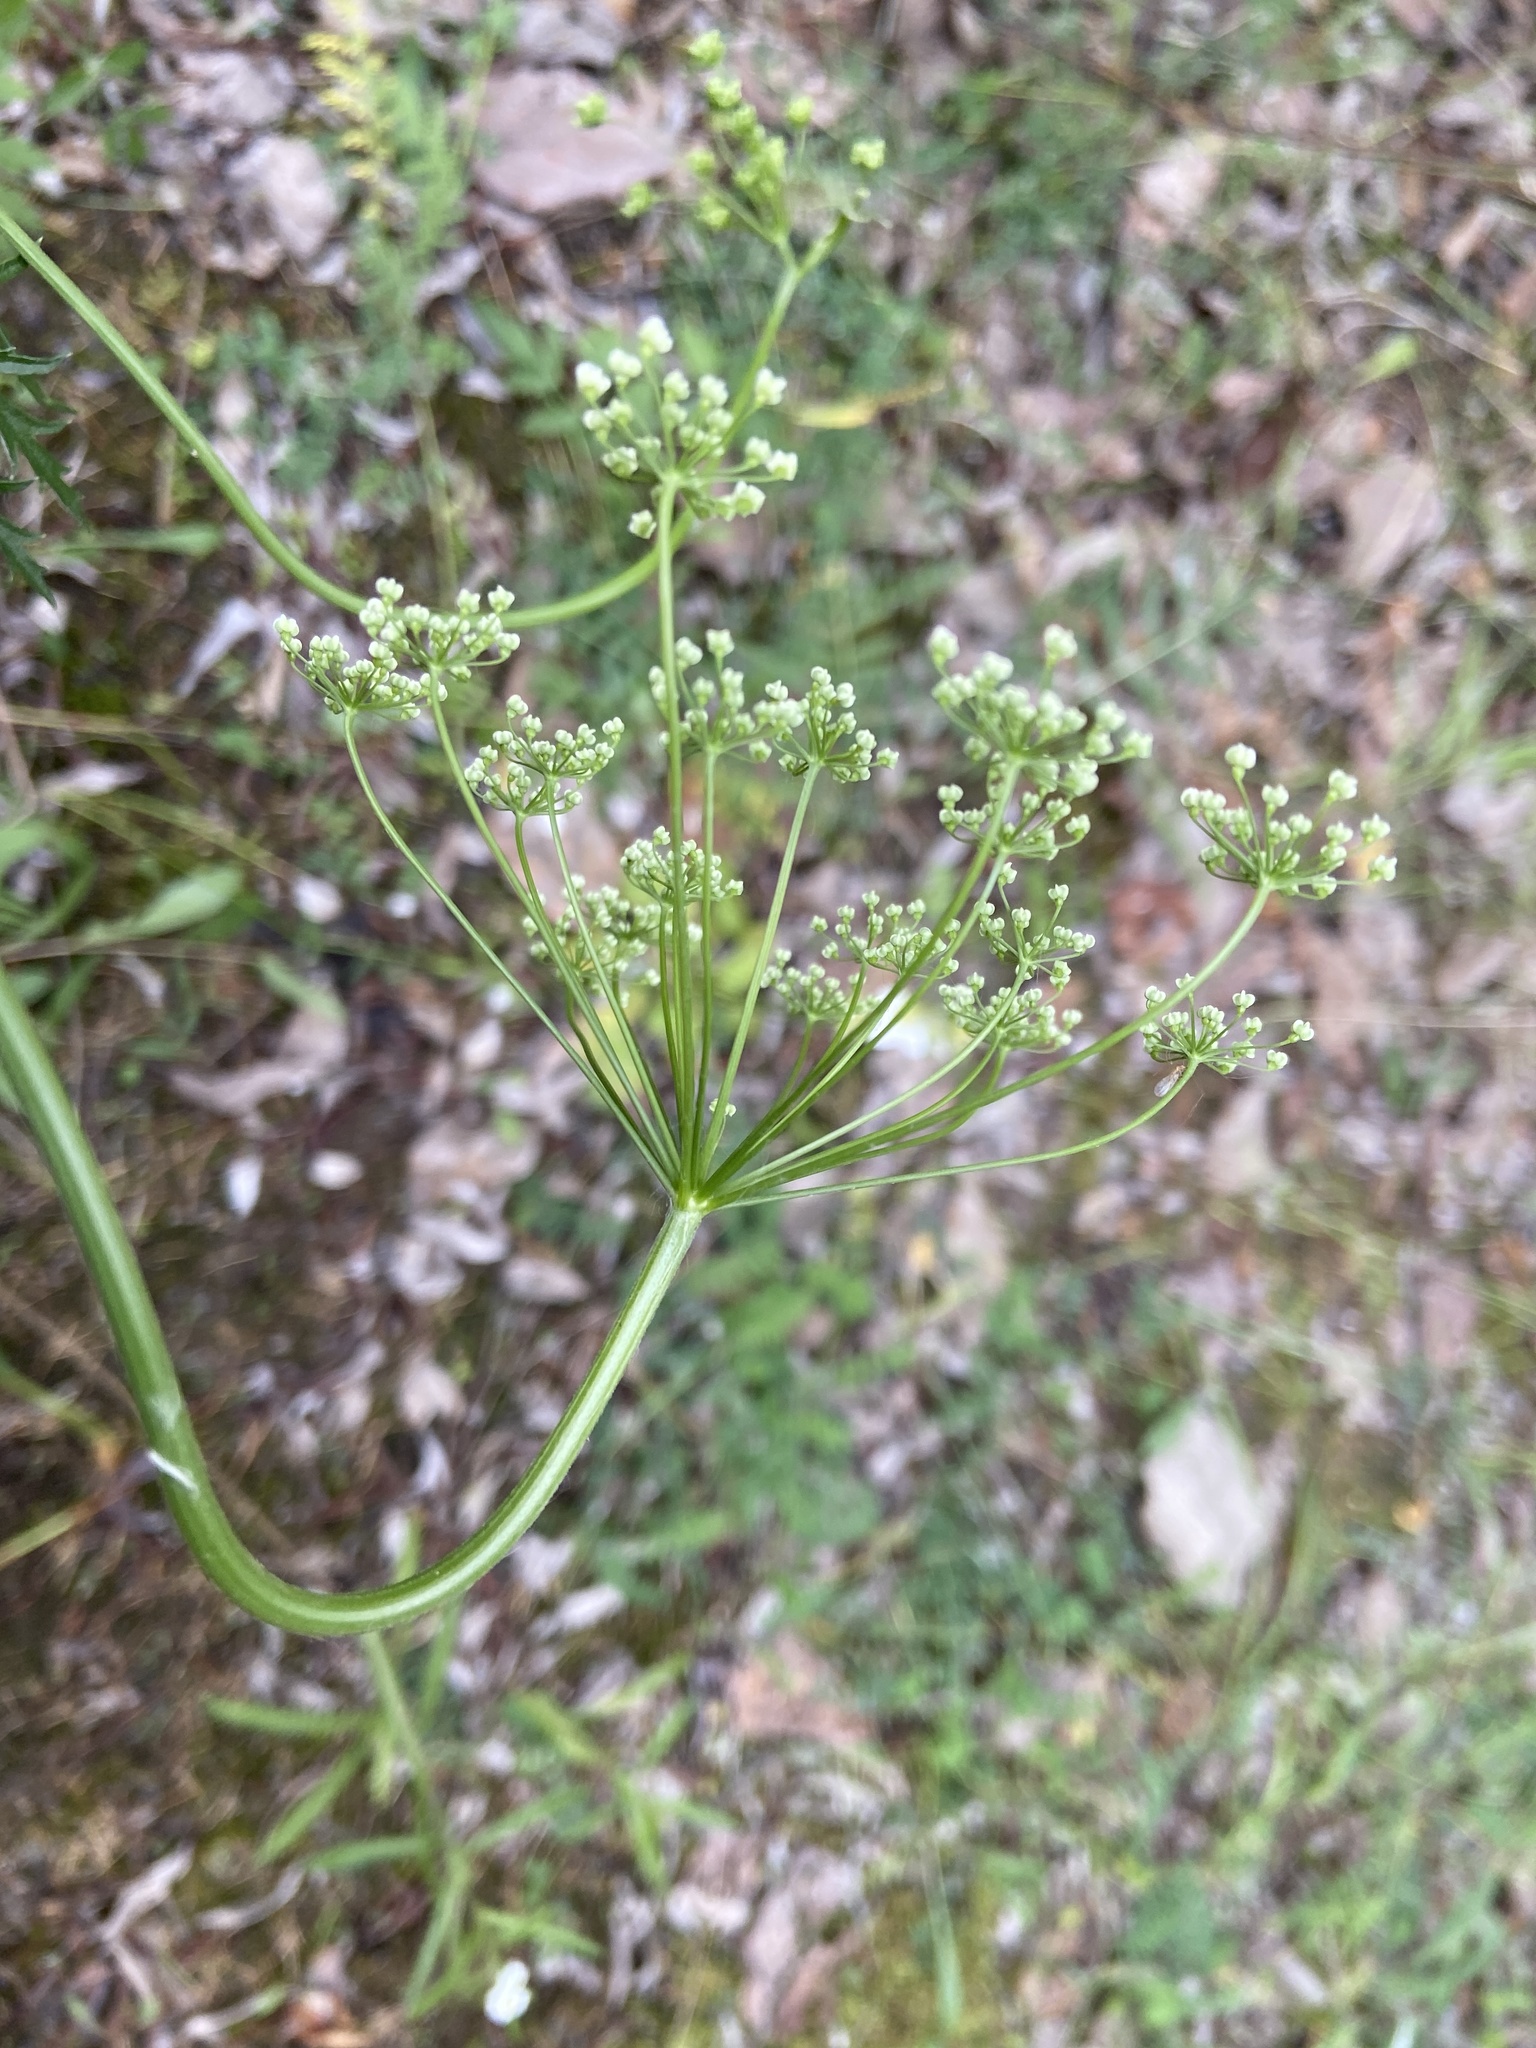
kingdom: Plantae
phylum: Tracheophyta
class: Magnoliopsida
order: Apiales
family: Apiaceae
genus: Aegopodium
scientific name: Aegopodium alpestre
